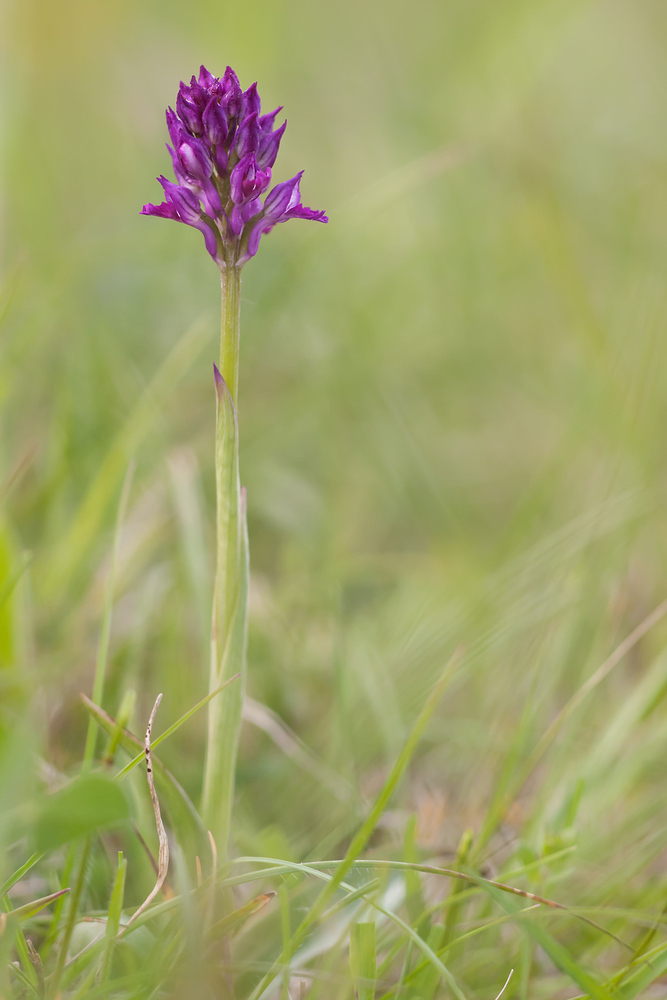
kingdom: Plantae
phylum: Tracheophyta
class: Liliopsida
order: Asparagales
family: Orchidaceae
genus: Neotinea
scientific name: Neotinea tridentata
